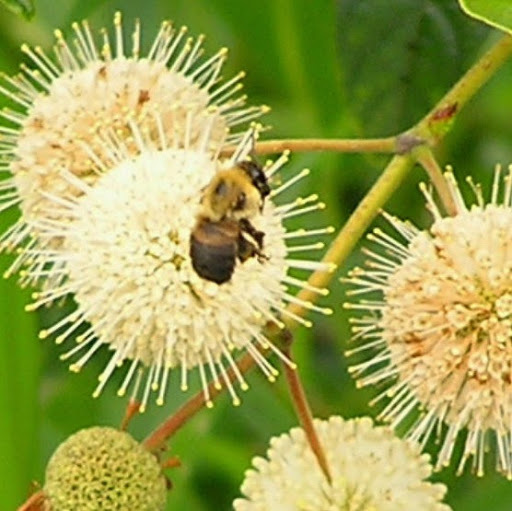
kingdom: Animalia
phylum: Arthropoda
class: Insecta
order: Hymenoptera
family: Apidae
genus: Bombus
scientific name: Bombus griseocollis
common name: Brown-belted bumble bee
